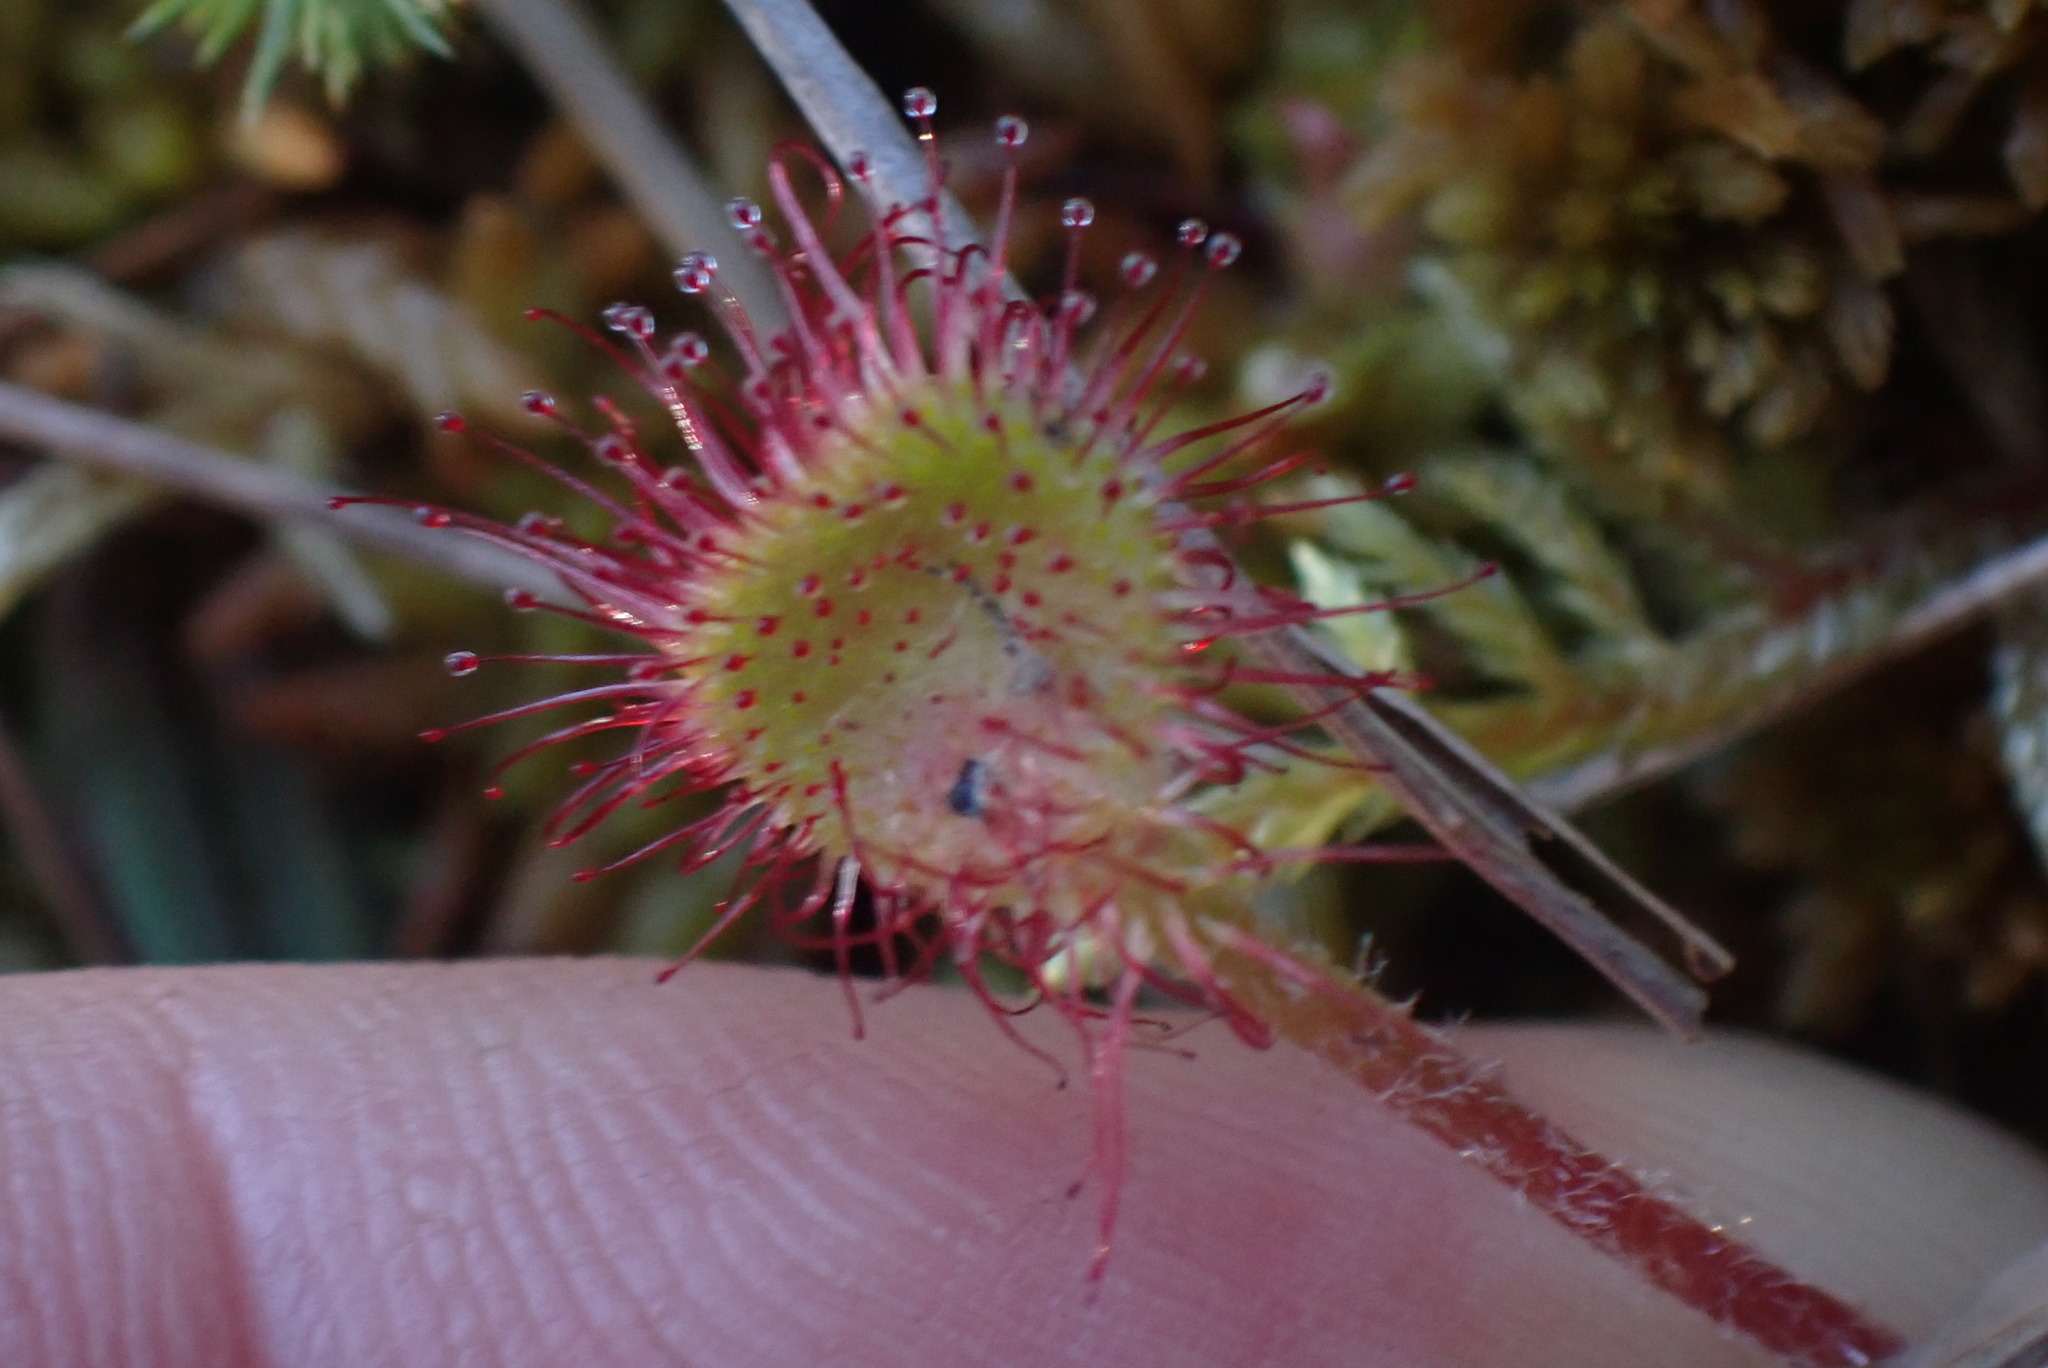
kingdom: Plantae
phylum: Tracheophyta
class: Magnoliopsida
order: Caryophyllales
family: Droseraceae
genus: Drosera
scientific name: Drosera rotundifolia
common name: Round-leaved sundew
